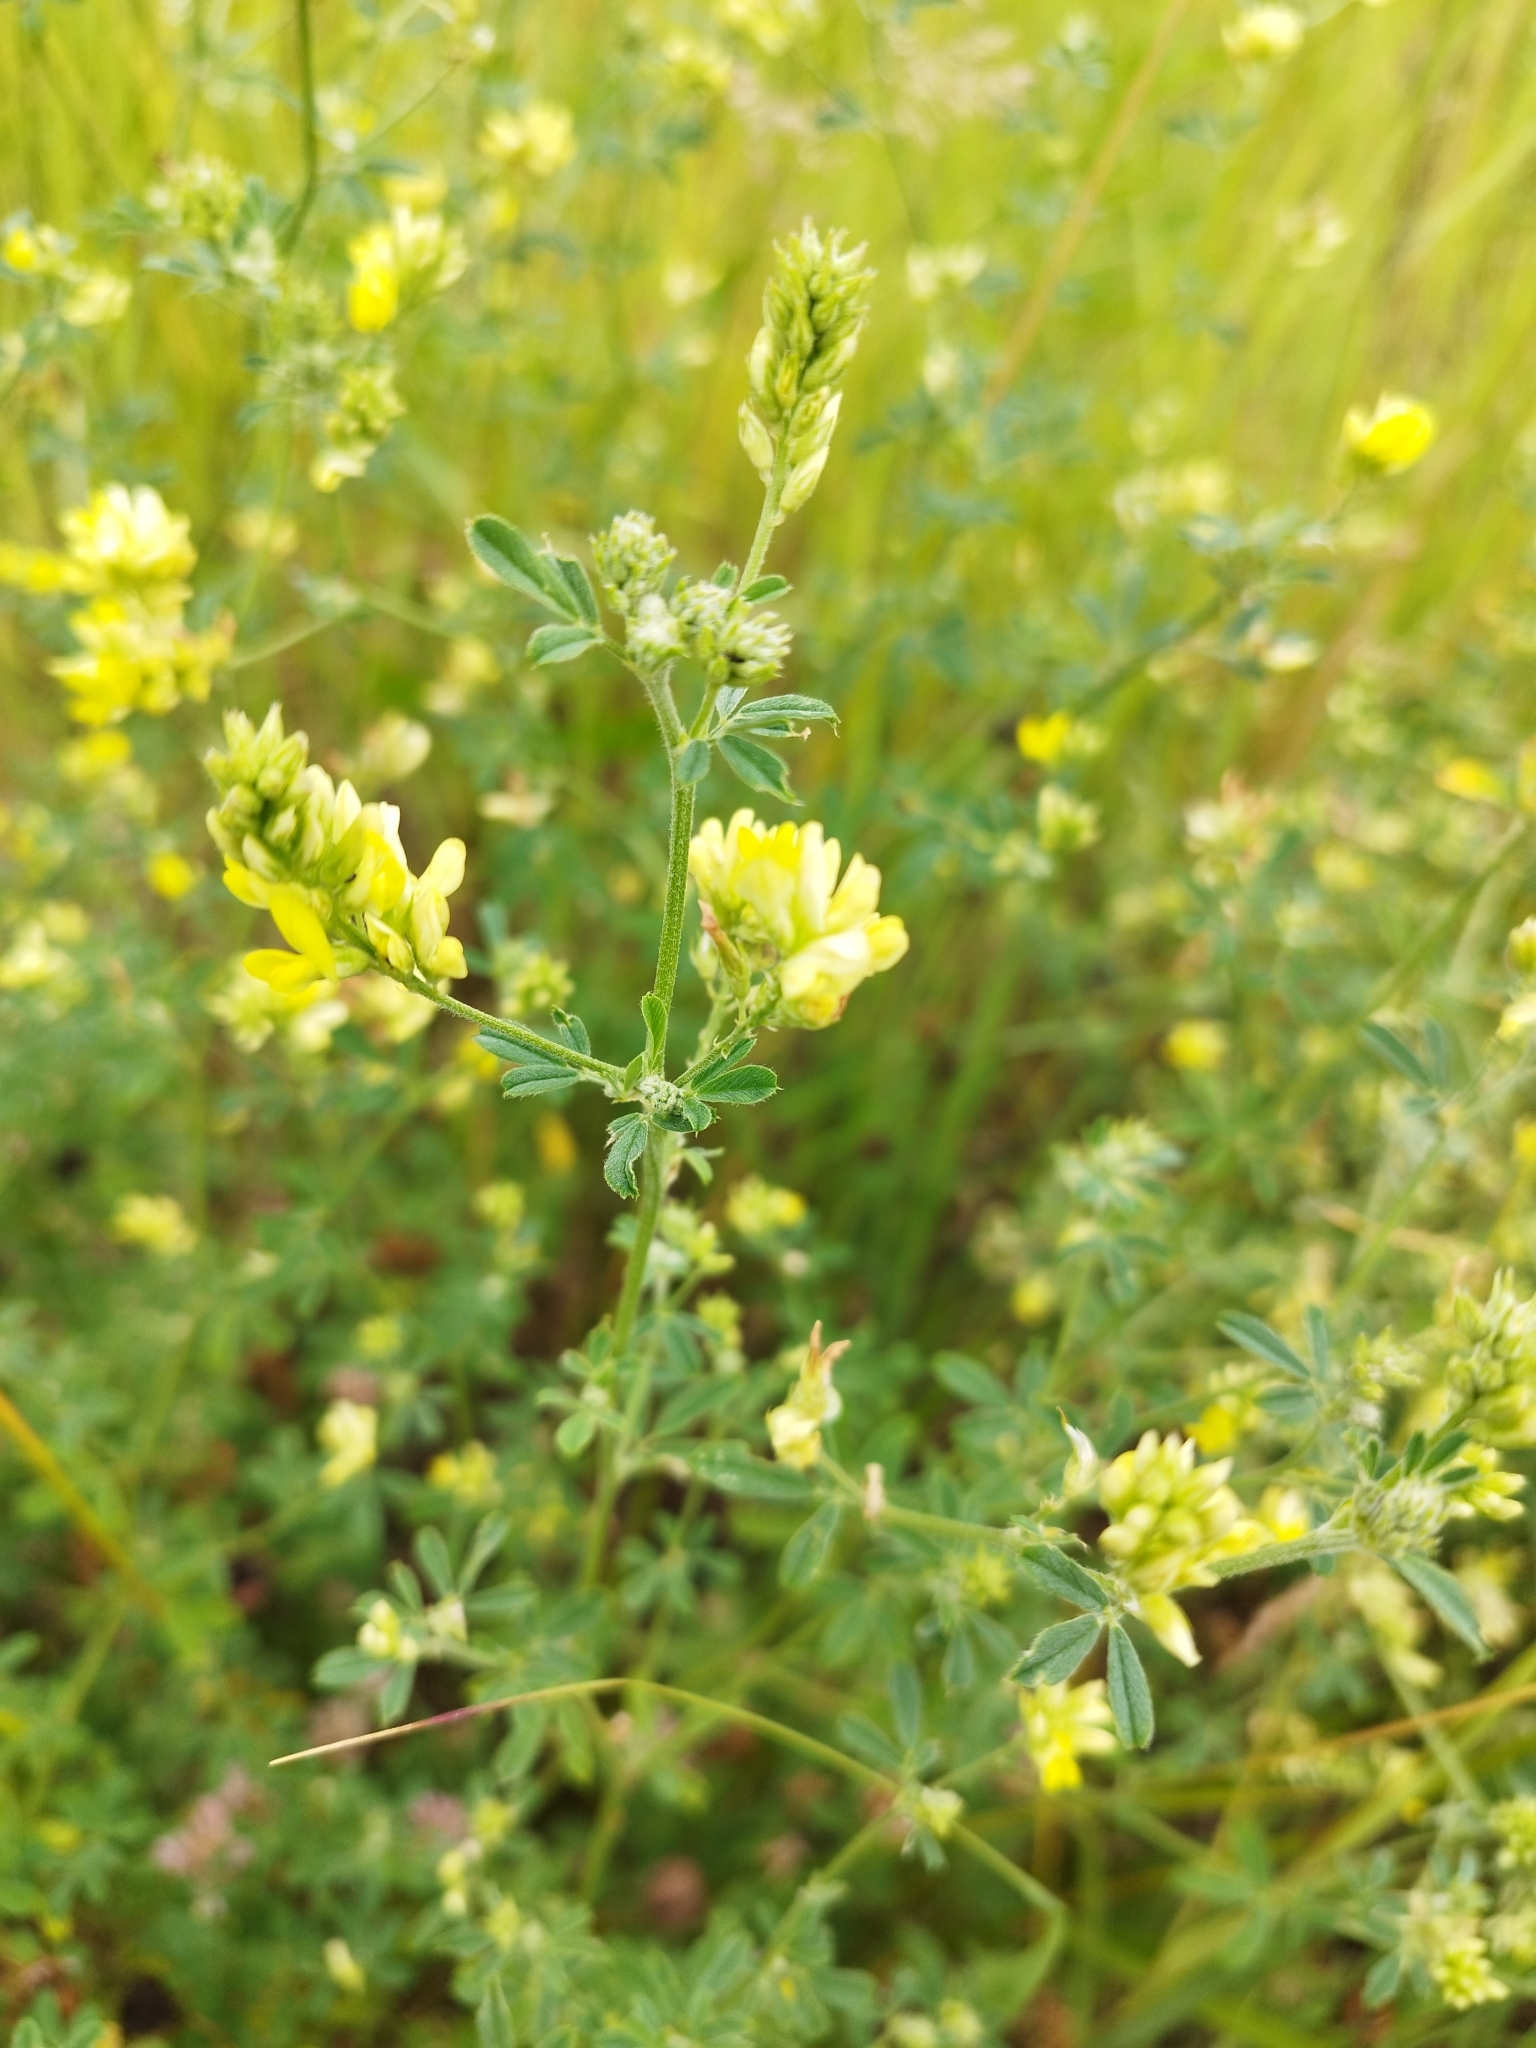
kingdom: Plantae
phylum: Tracheophyta
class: Magnoliopsida
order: Fabales
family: Fabaceae
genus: Medicago
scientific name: Medicago falcata
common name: Sickle medick
